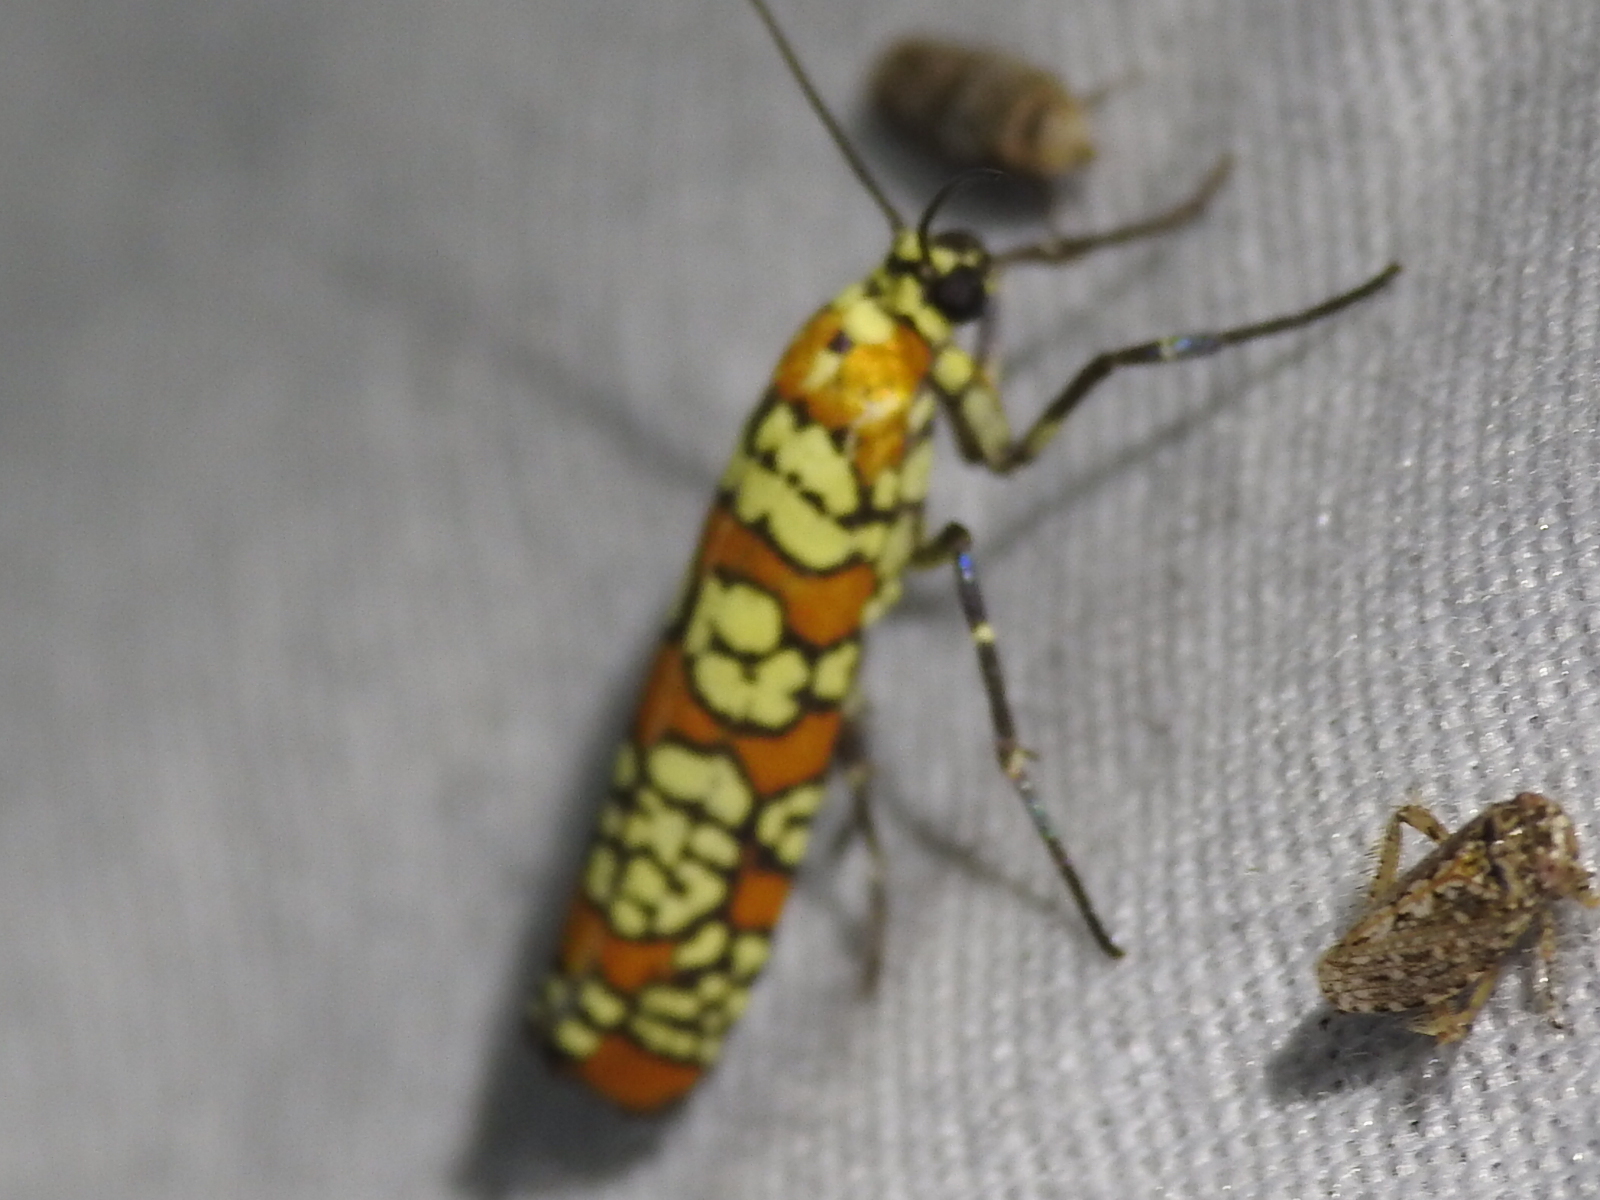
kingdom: Animalia
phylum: Arthropoda
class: Insecta
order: Lepidoptera
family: Attevidae
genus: Atteva
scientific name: Atteva punctella
